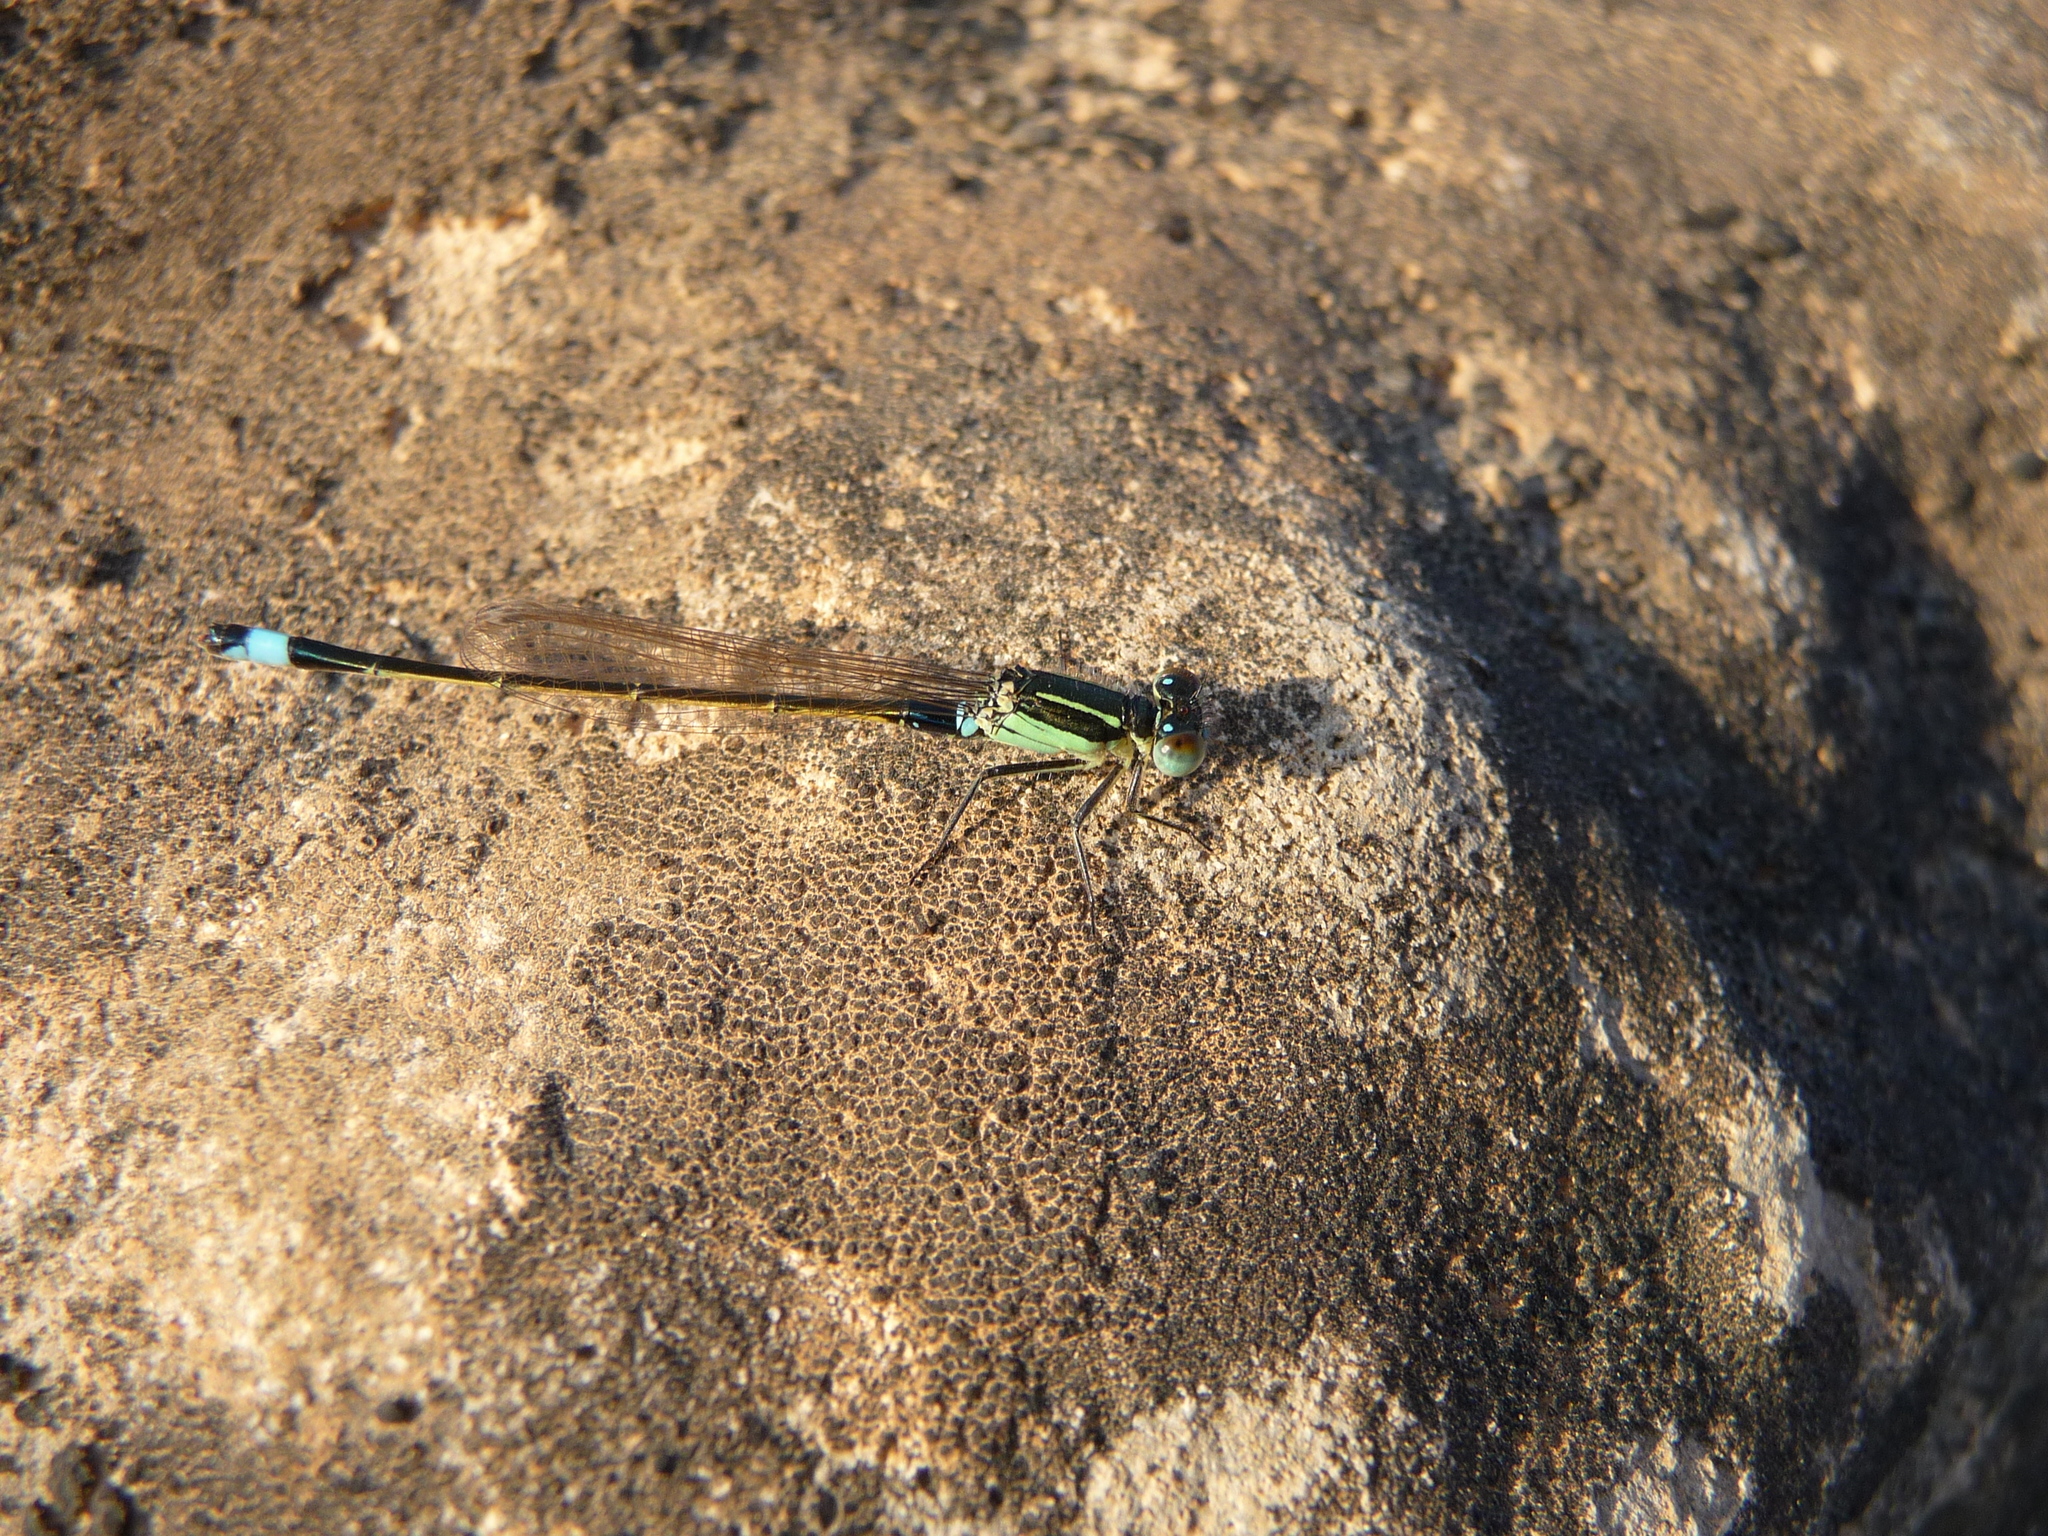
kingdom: Animalia
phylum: Arthropoda
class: Insecta
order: Odonata
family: Coenagrionidae
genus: Ischnura
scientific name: Ischnura senegalensis
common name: Tropical bluetail
